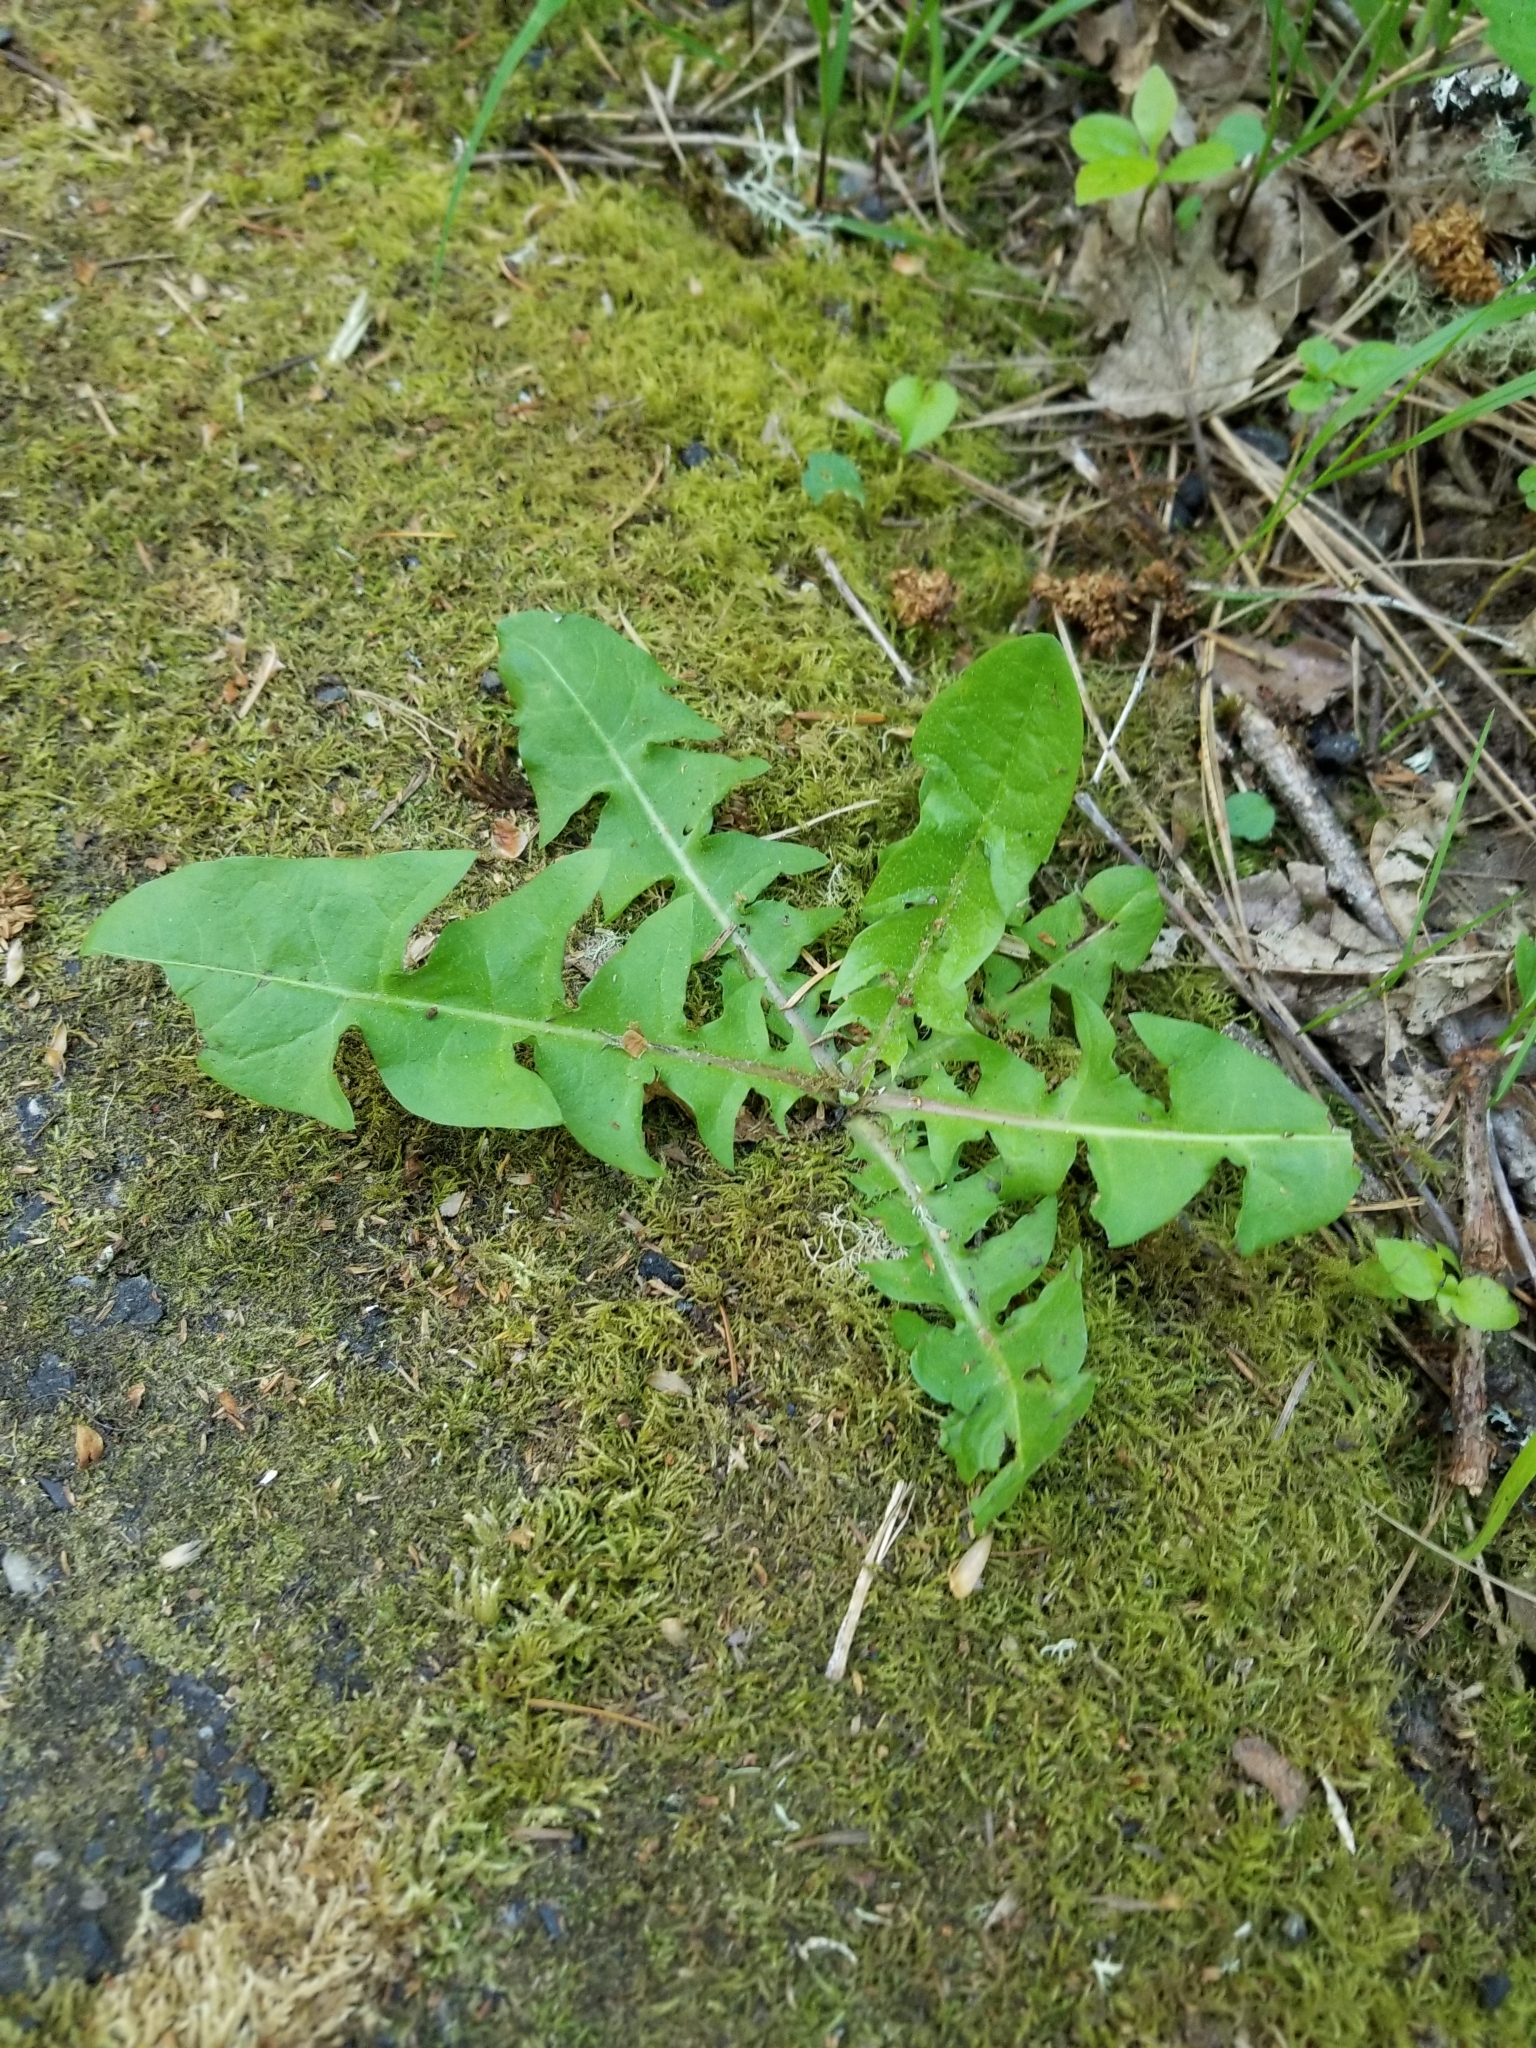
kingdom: Plantae
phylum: Tracheophyta
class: Magnoliopsida
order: Asterales
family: Asteraceae
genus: Taraxacum
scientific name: Taraxacum officinale
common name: Common dandelion
